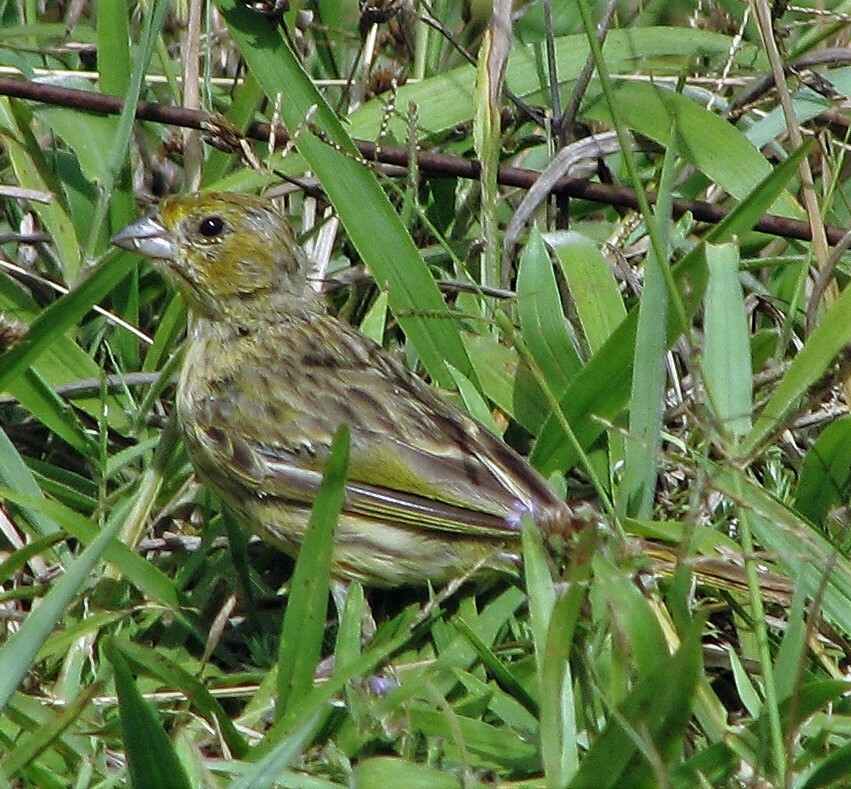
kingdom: Animalia
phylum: Chordata
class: Aves
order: Passeriformes
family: Thraupidae
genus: Sicalis
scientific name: Sicalis flaveola
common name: Saffron finch
